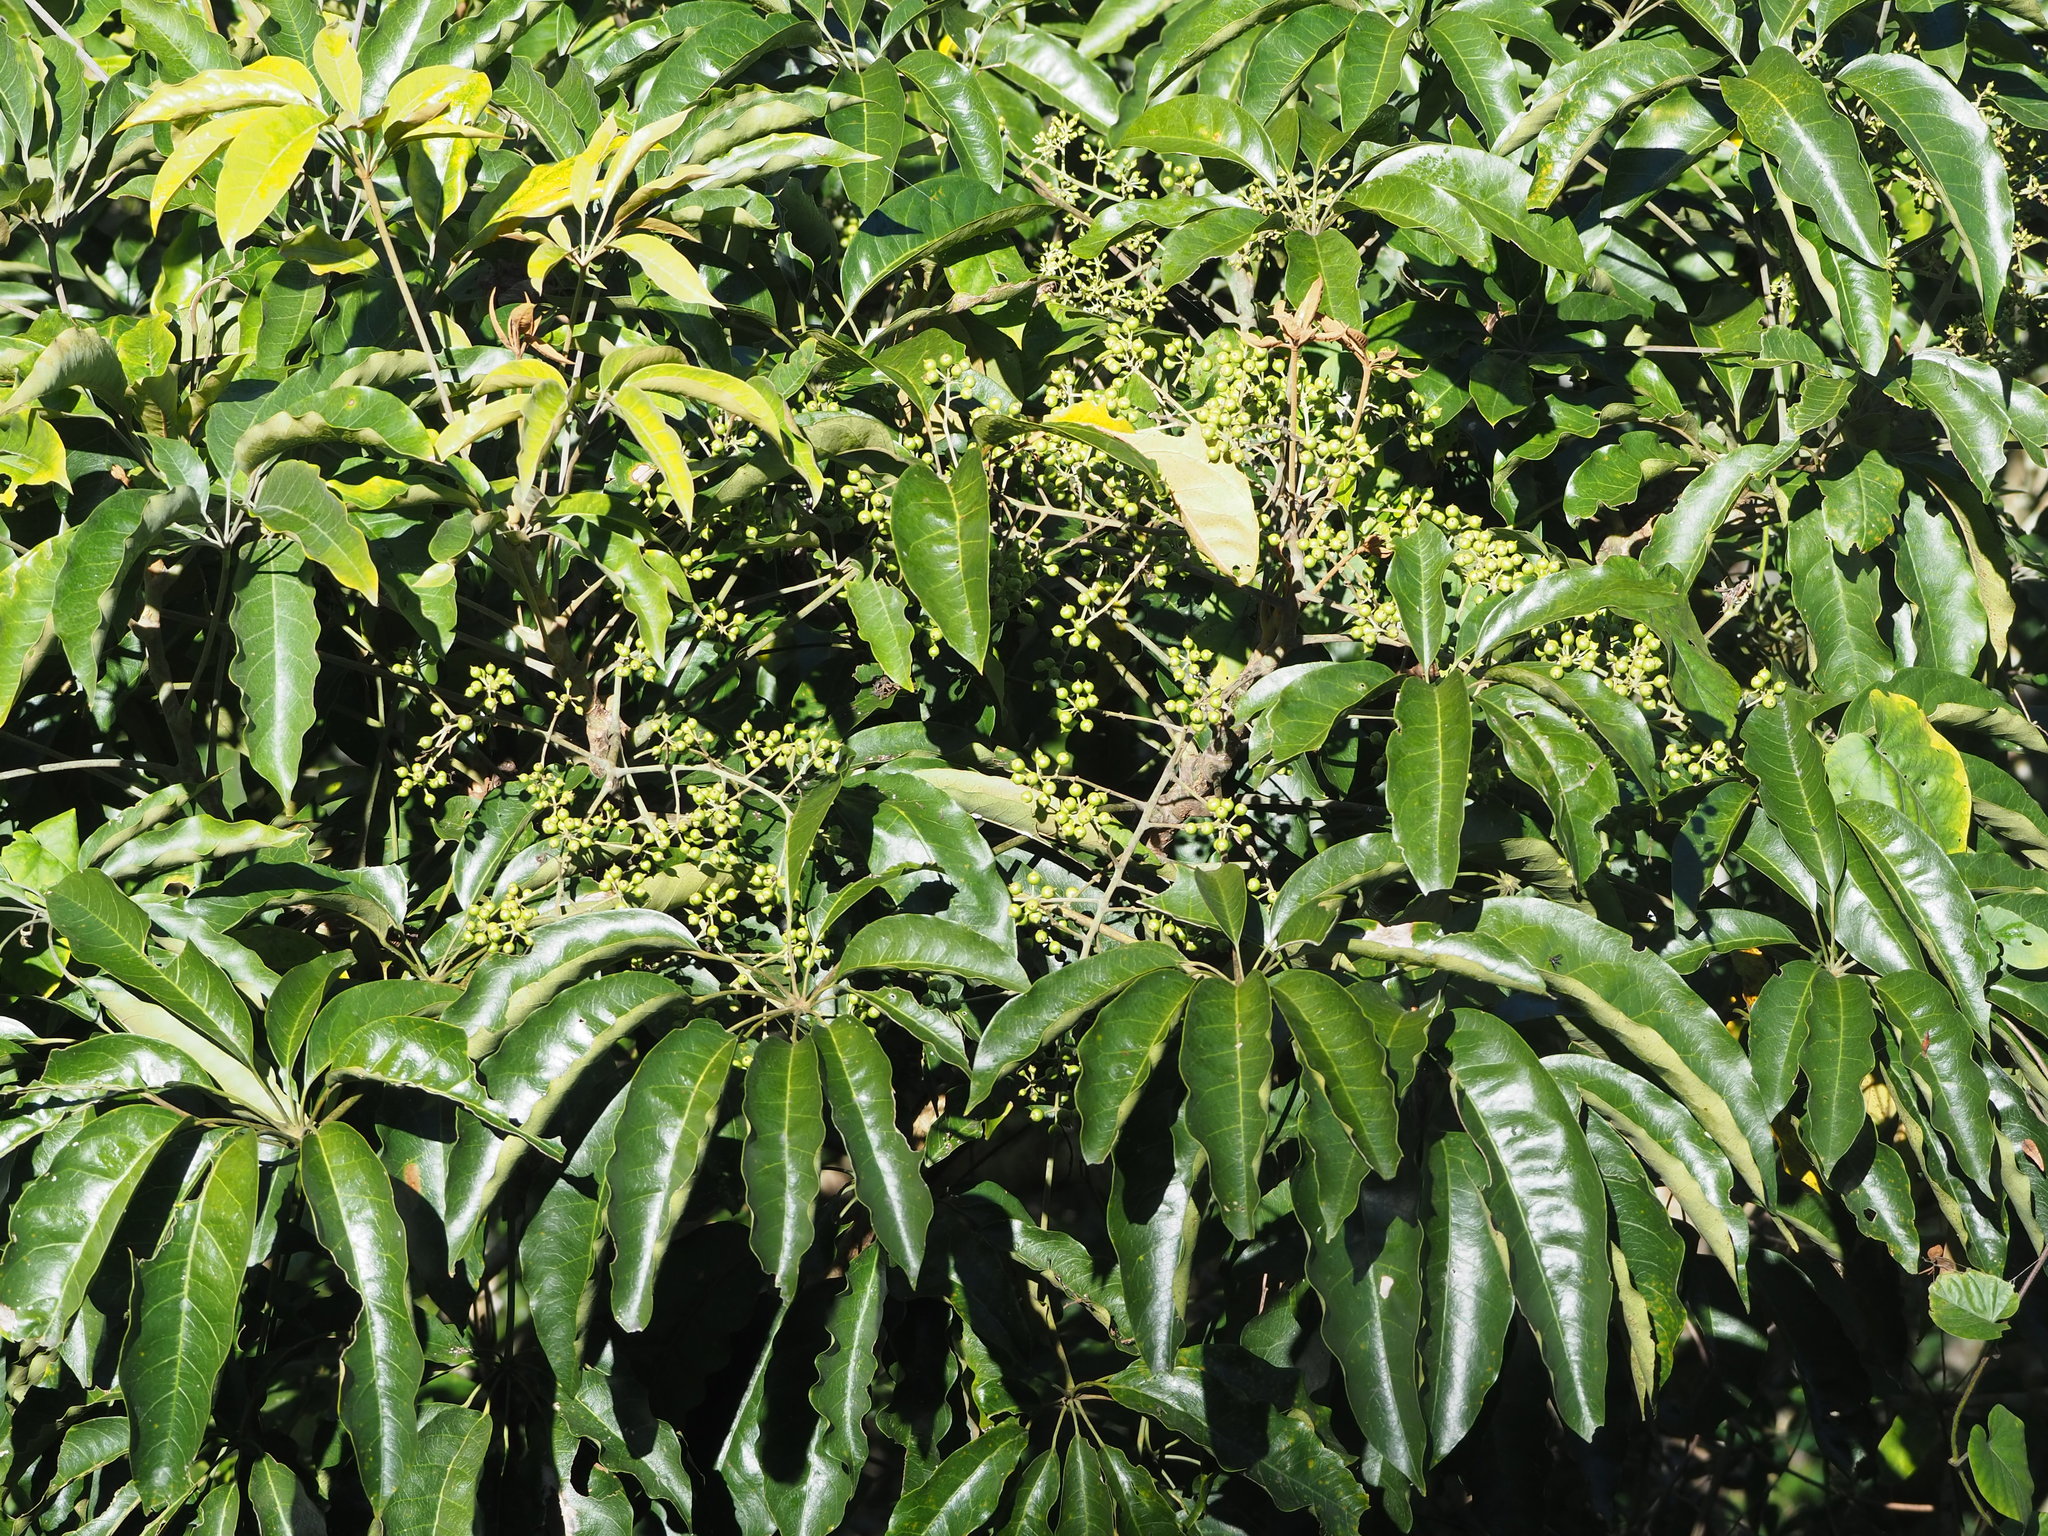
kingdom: Plantae
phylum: Tracheophyta
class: Magnoliopsida
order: Apiales
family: Araliaceae
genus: Heptapleurum
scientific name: Heptapleurum heptaphyllum
